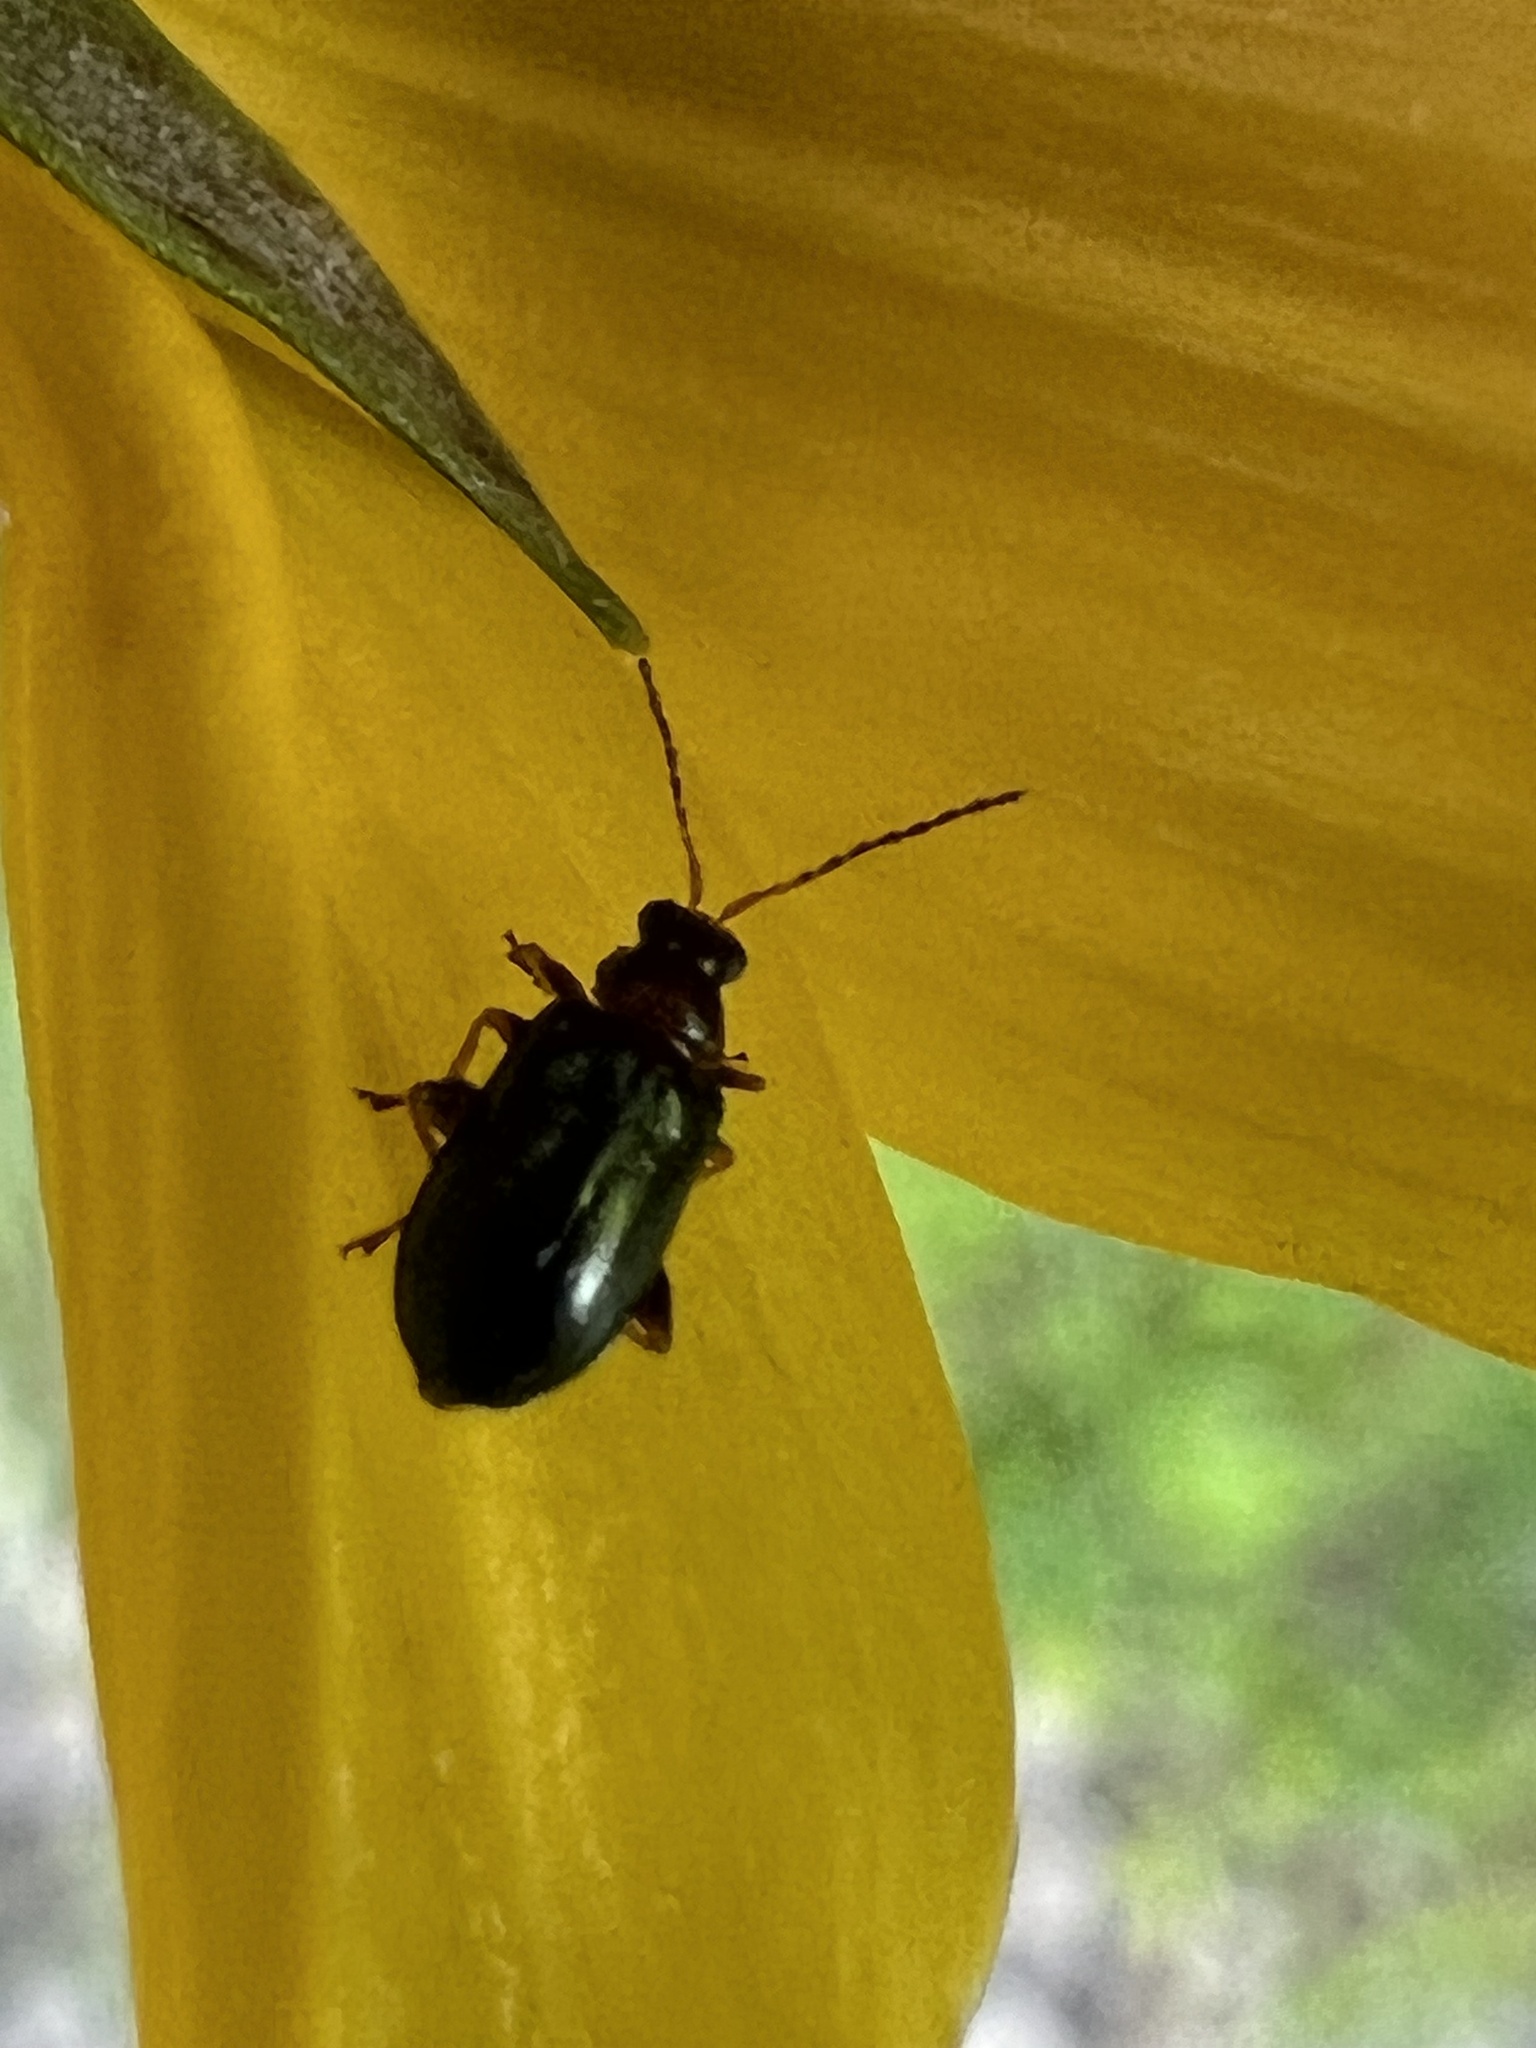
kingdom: Animalia
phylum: Arthropoda
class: Insecta
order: Coleoptera
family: Chrysomelidae
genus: Luperaltica
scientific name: Luperaltica senilis
